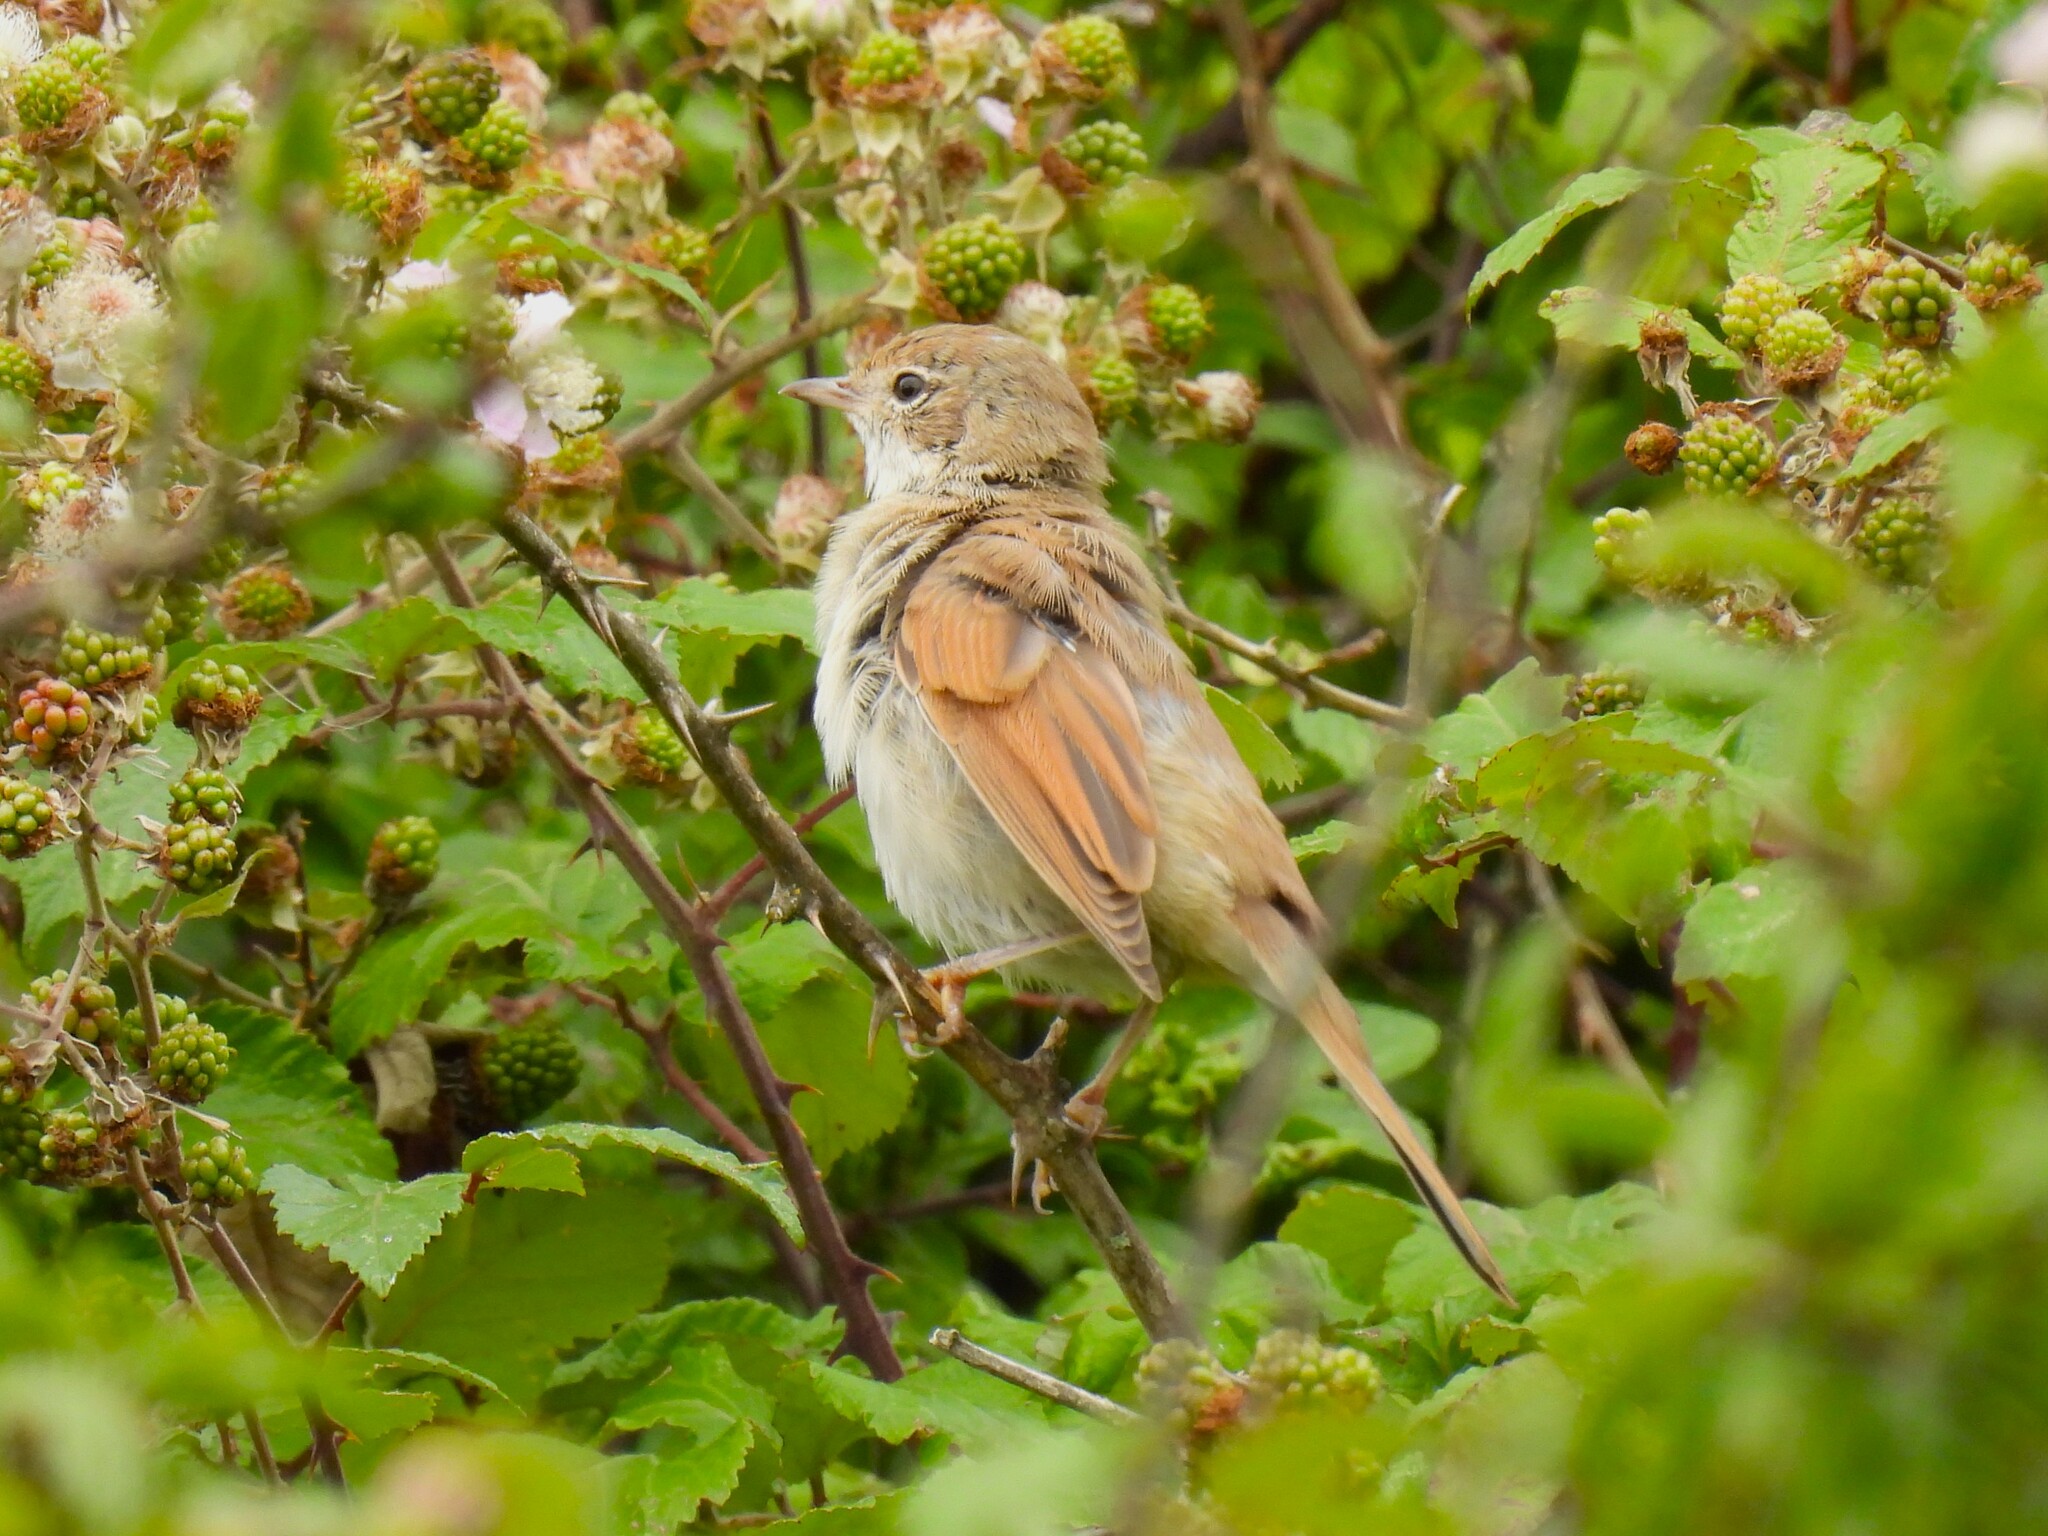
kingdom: Animalia
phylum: Chordata
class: Aves
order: Passeriformes
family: Sylviidae
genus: Sylvia
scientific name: Sylvia communis
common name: Common whitethroat
